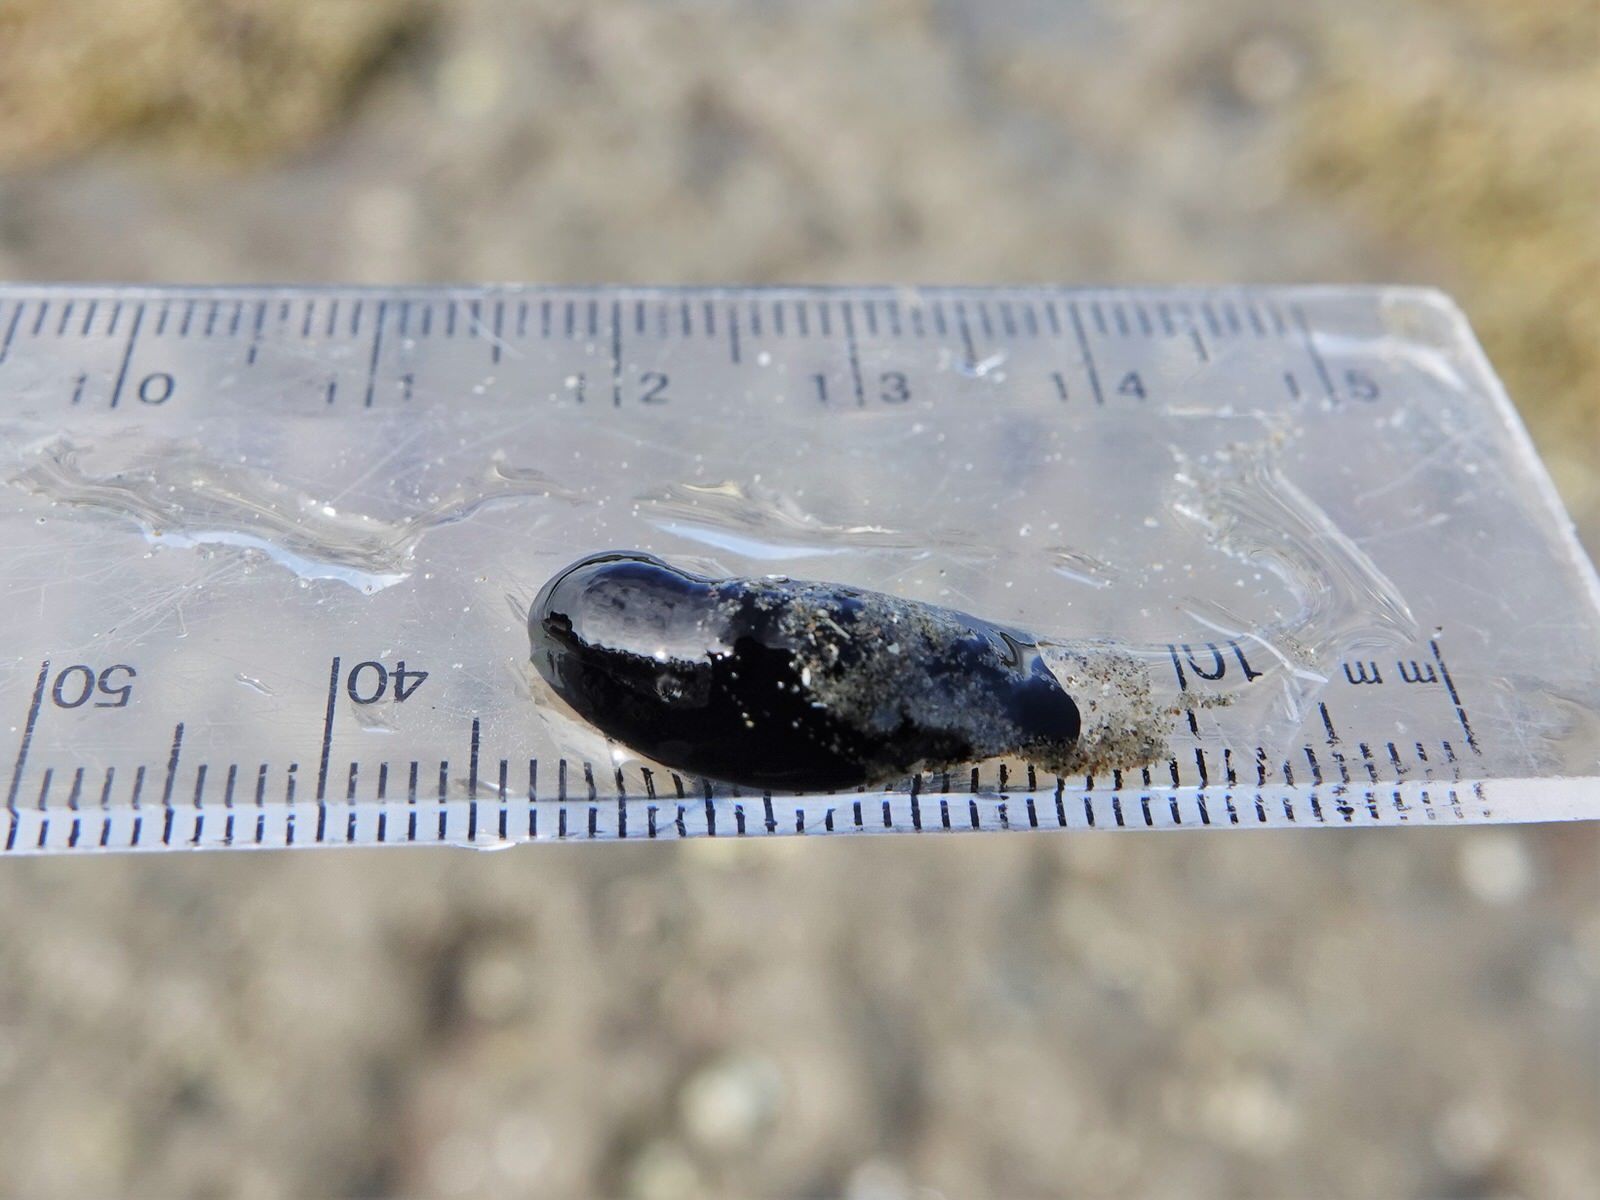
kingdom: Animalia
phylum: Mollusca
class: Gastropoda
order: Cephalaspidea
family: Aglajidae
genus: Melanochlamys
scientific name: Melanochlamys cylindrica
